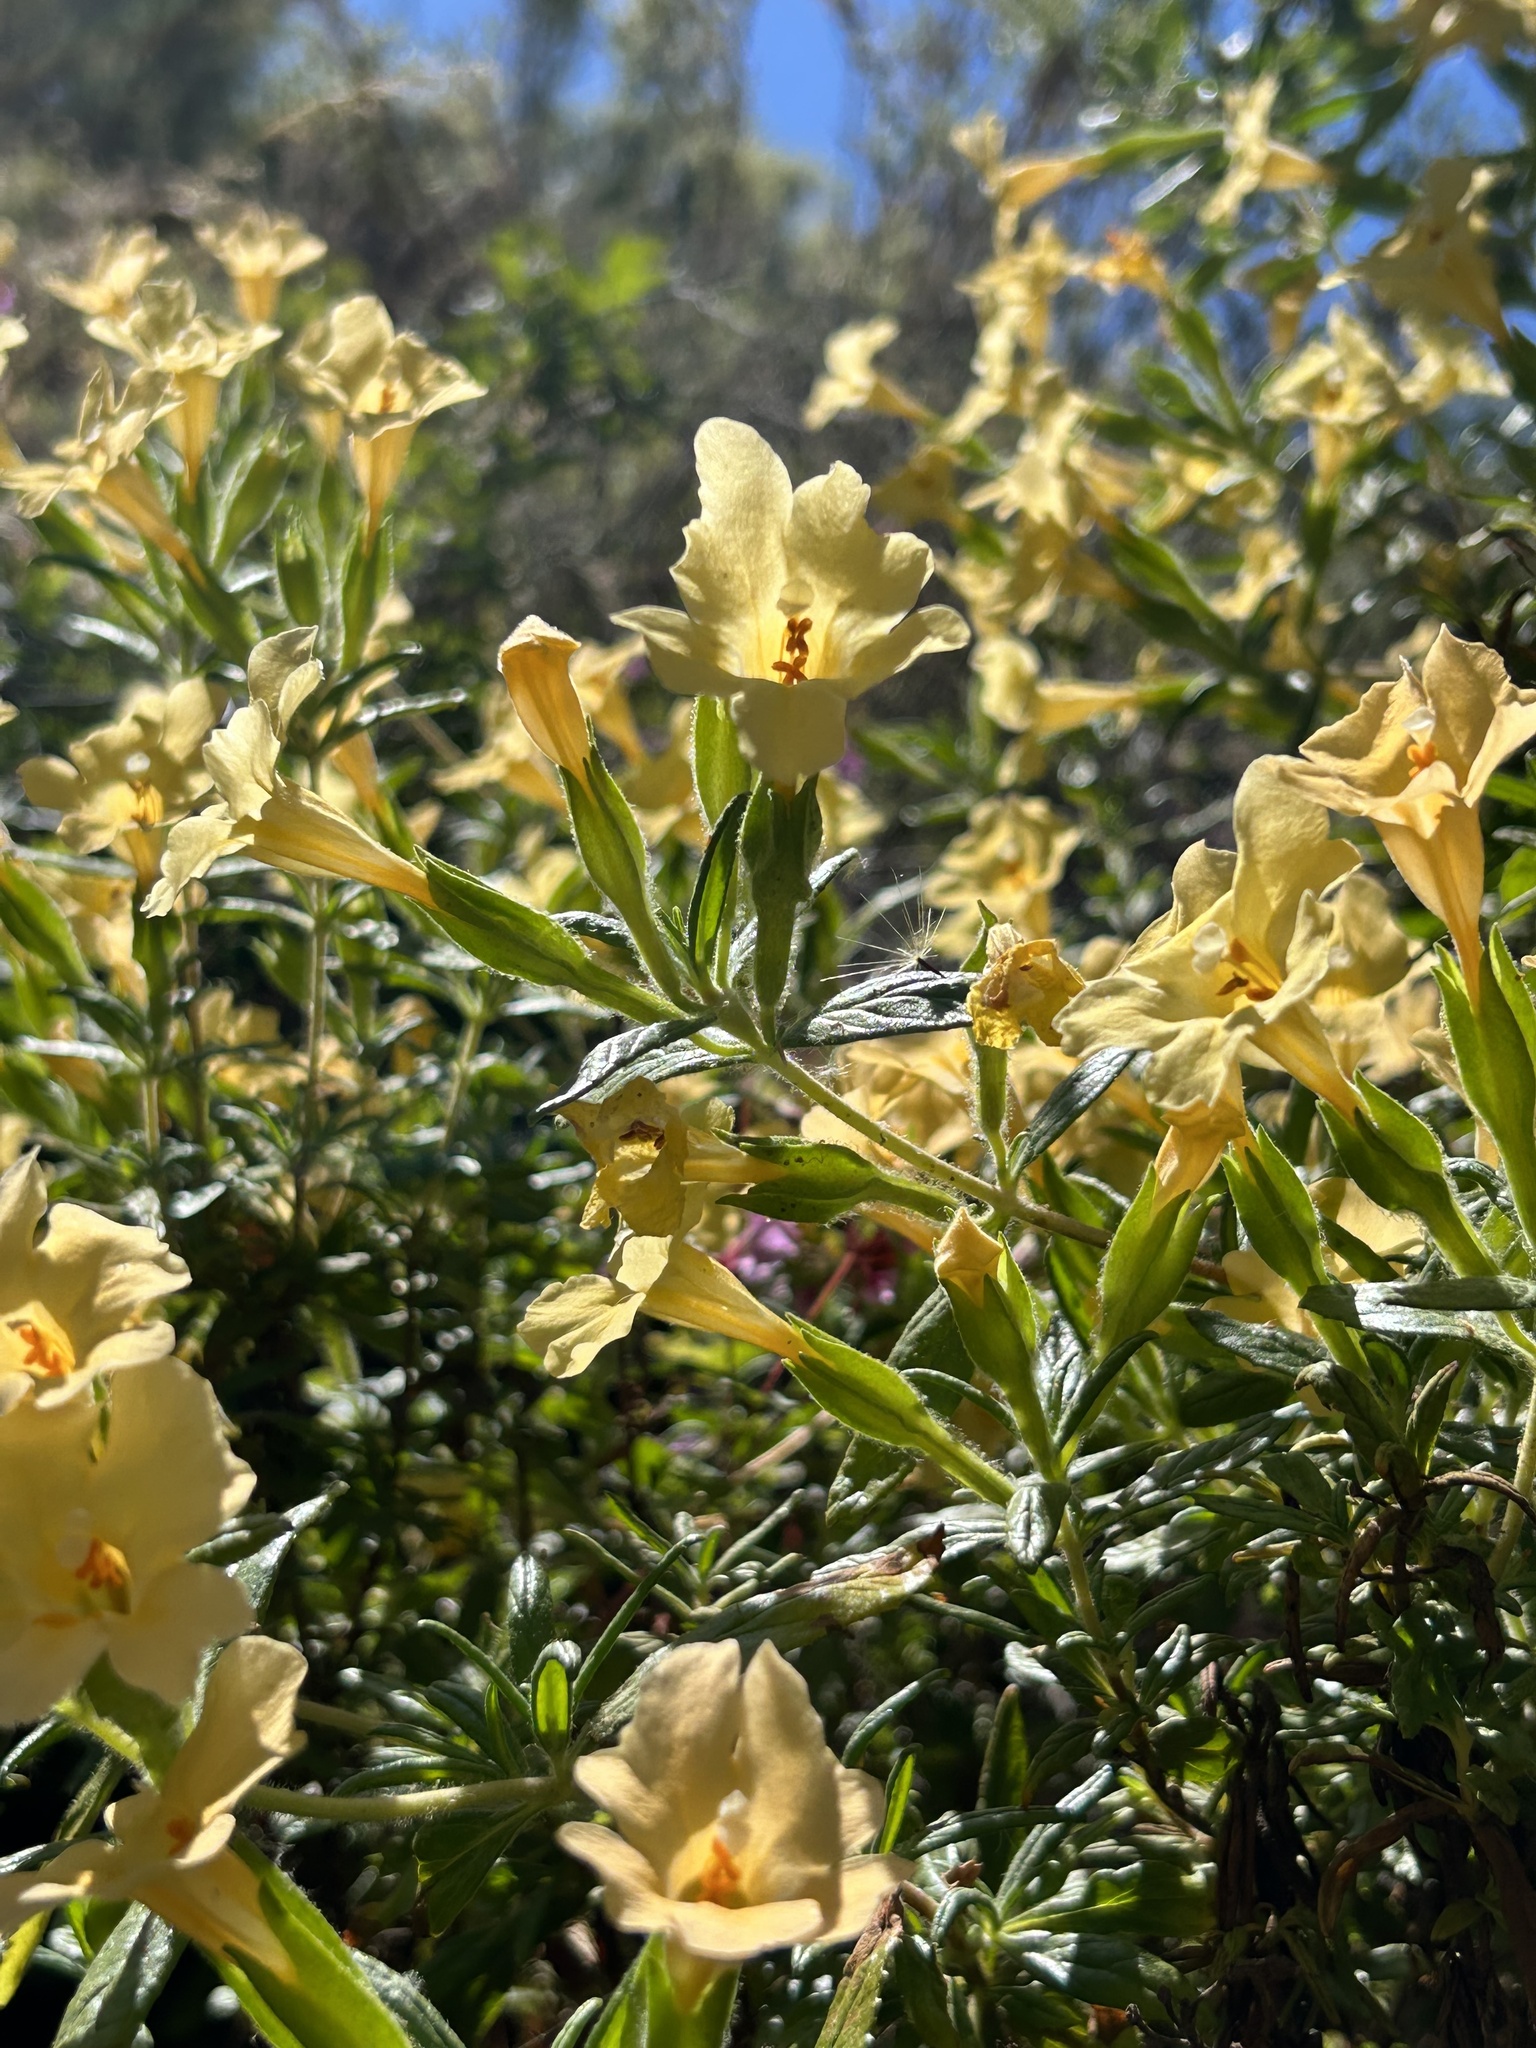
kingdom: Plantae
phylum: Tracheophyta
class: Magnoliopsida
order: Lamiales
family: Phrymaceae
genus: Diplacus
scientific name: Diplacus calycinus
